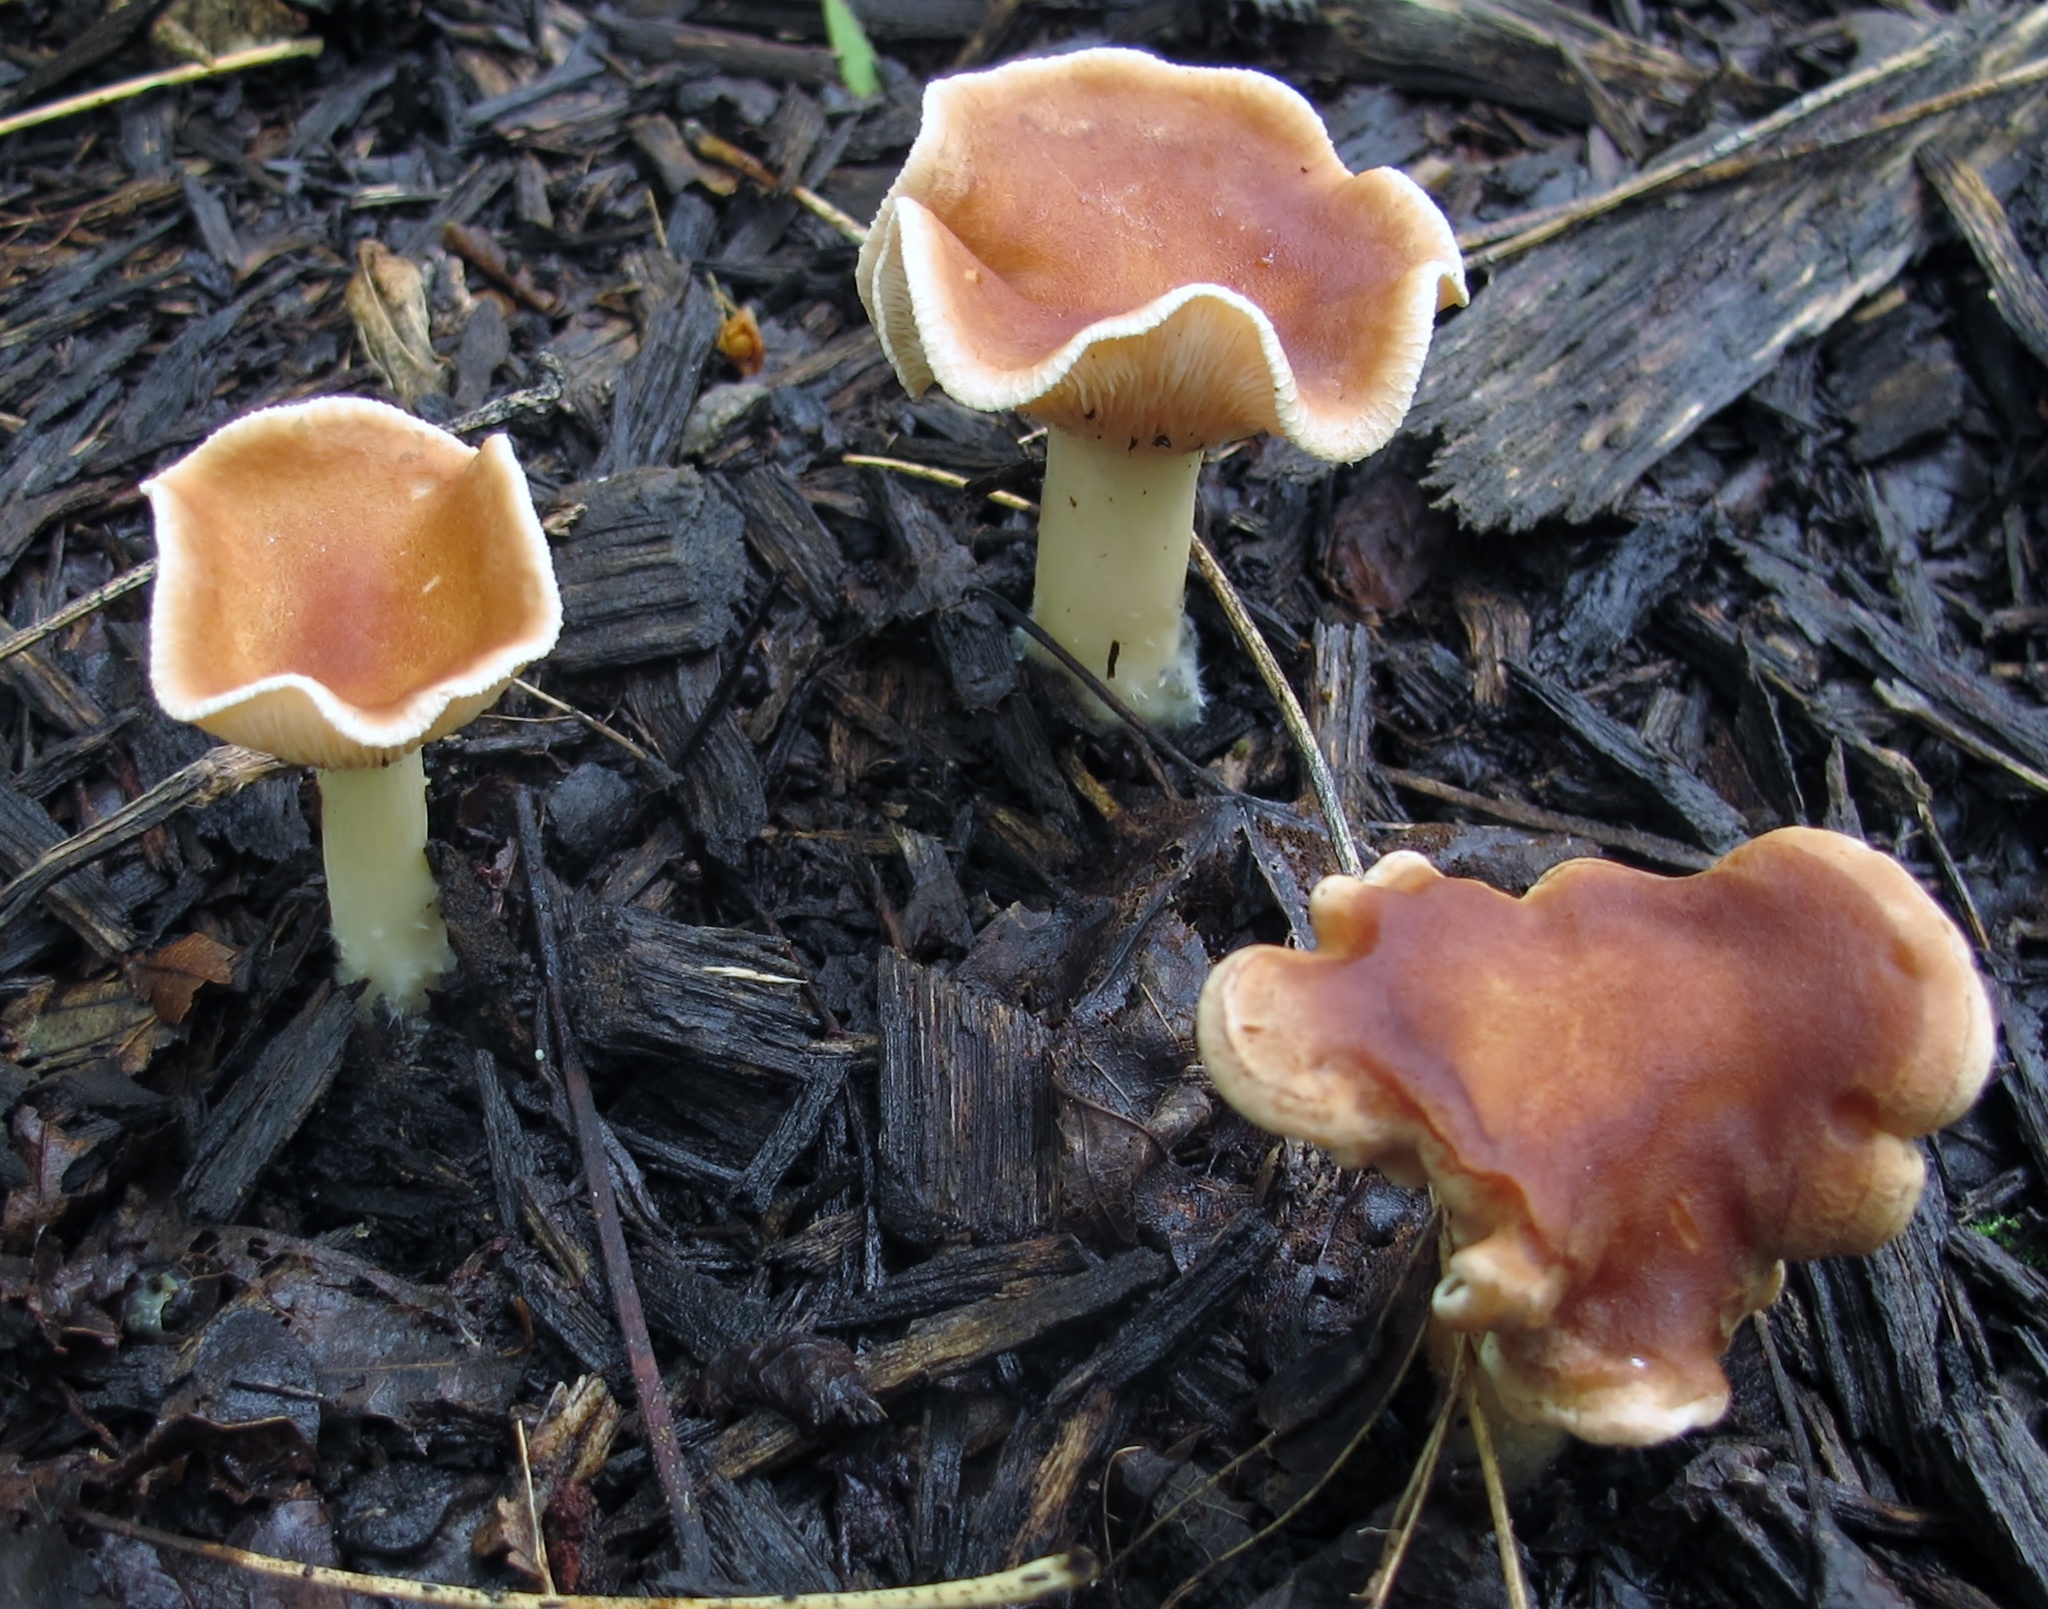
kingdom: Fungi
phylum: Basidiomycota
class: Agaricomycetes
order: Agaricales
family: Omphalotaceae
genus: Gymnopus
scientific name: Gymnopus dryophilus
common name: Penny top
